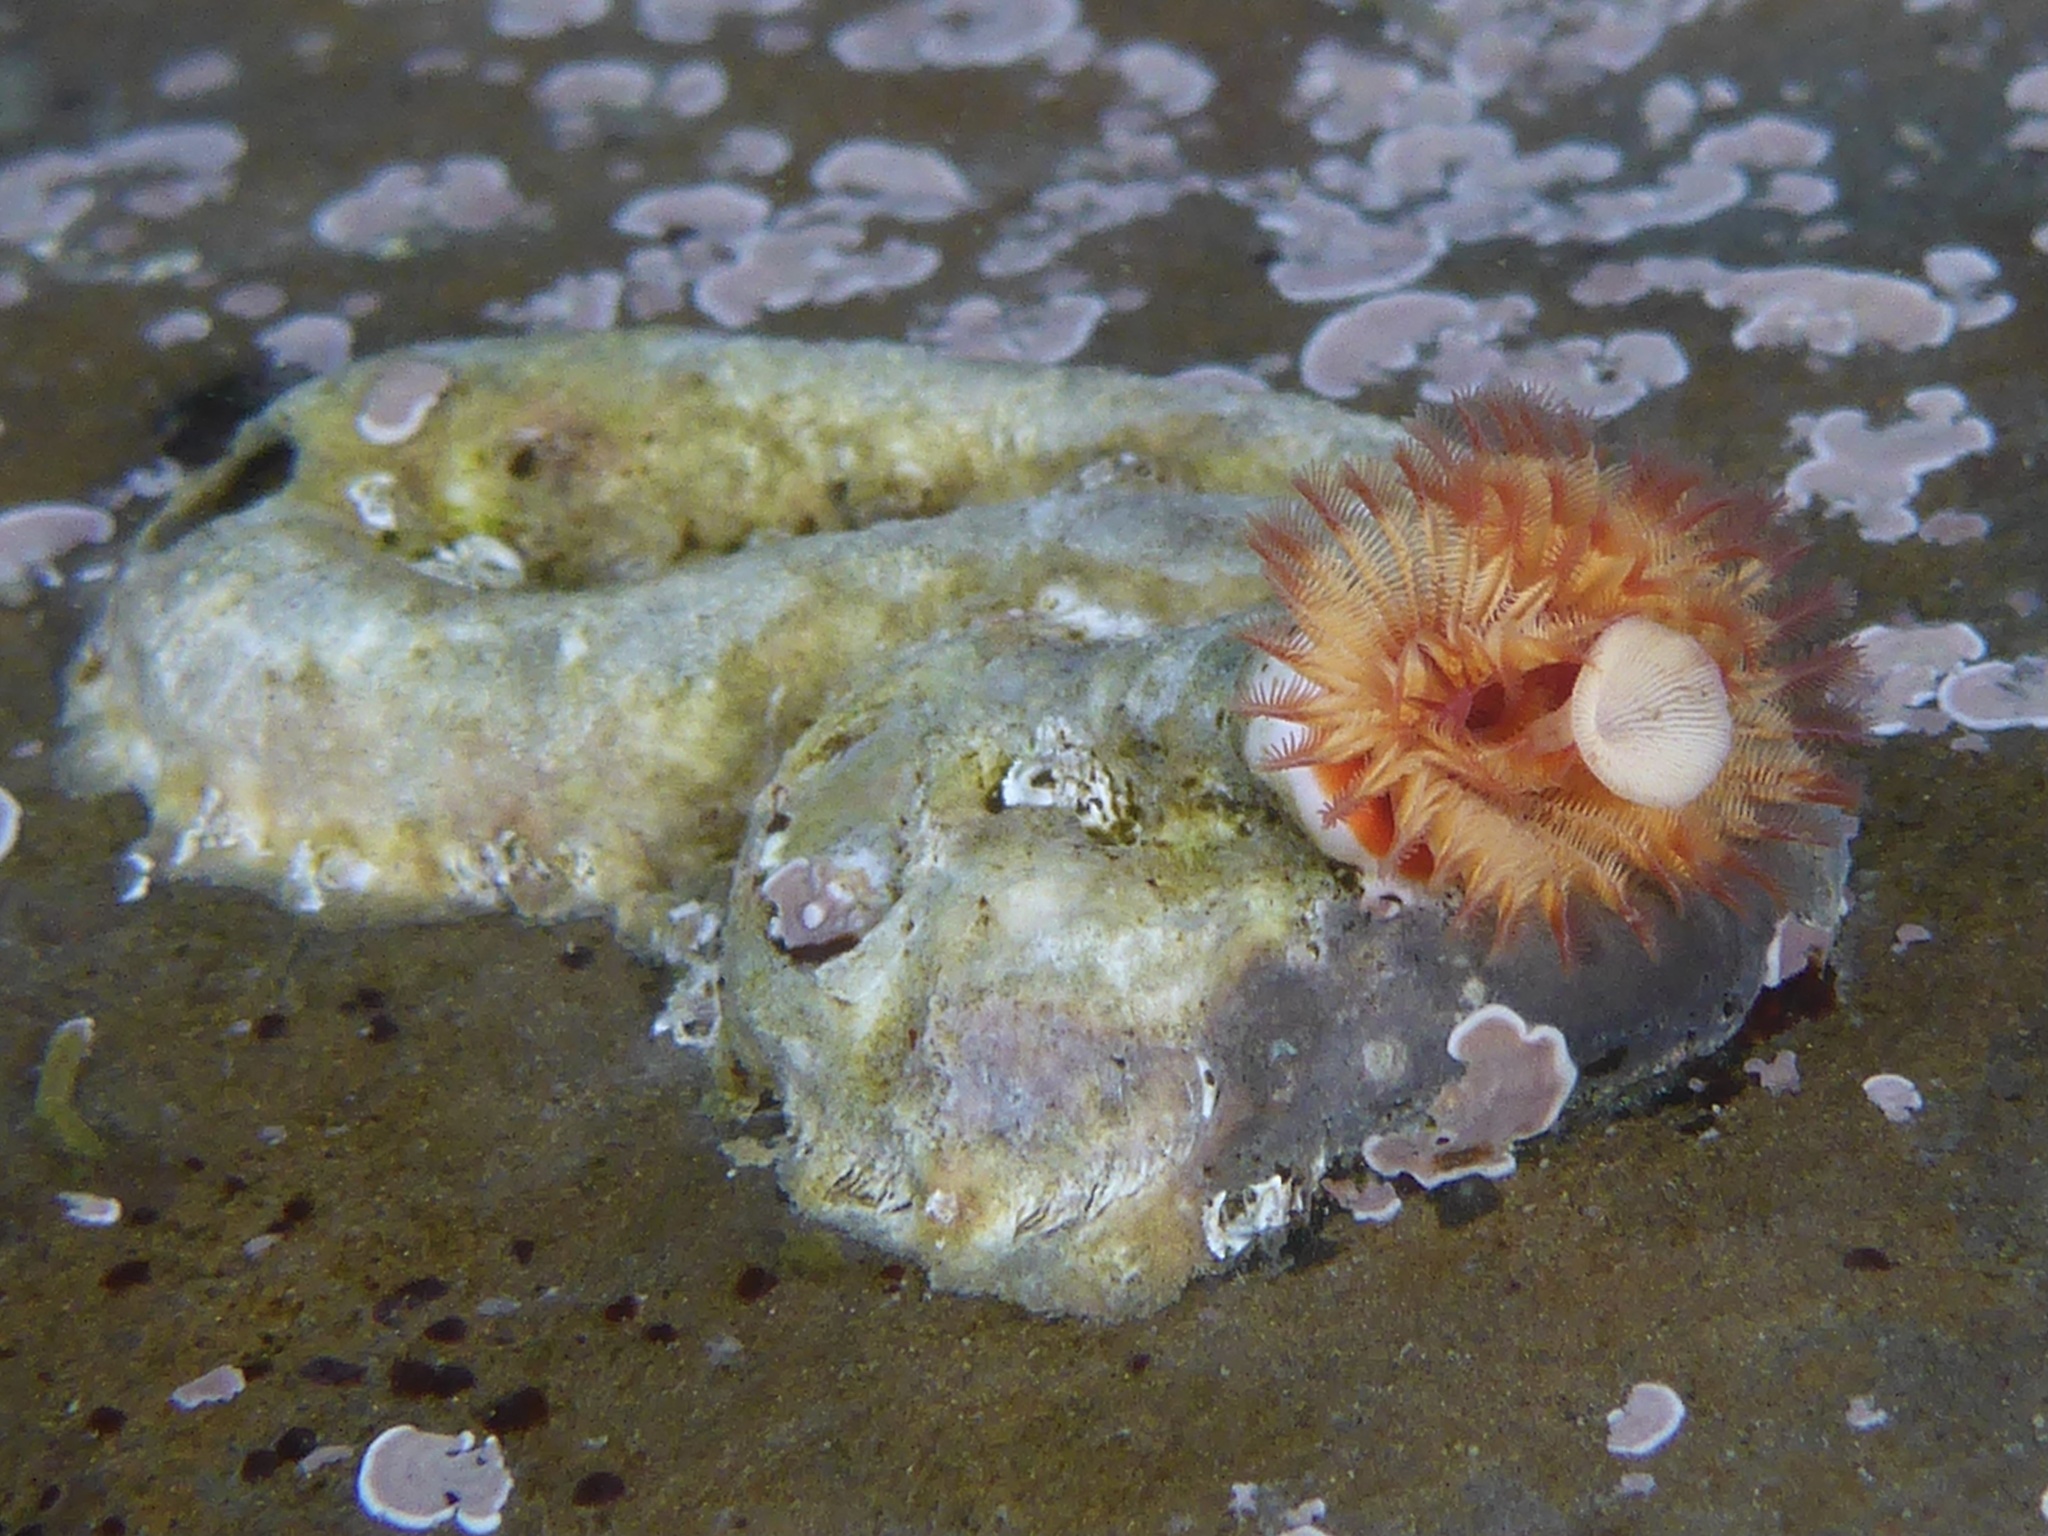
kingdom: Animalia
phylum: Annelida
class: Polychaeta
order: Sabellida
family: Serpulidae
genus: Serpula
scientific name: Serpula columbiana
